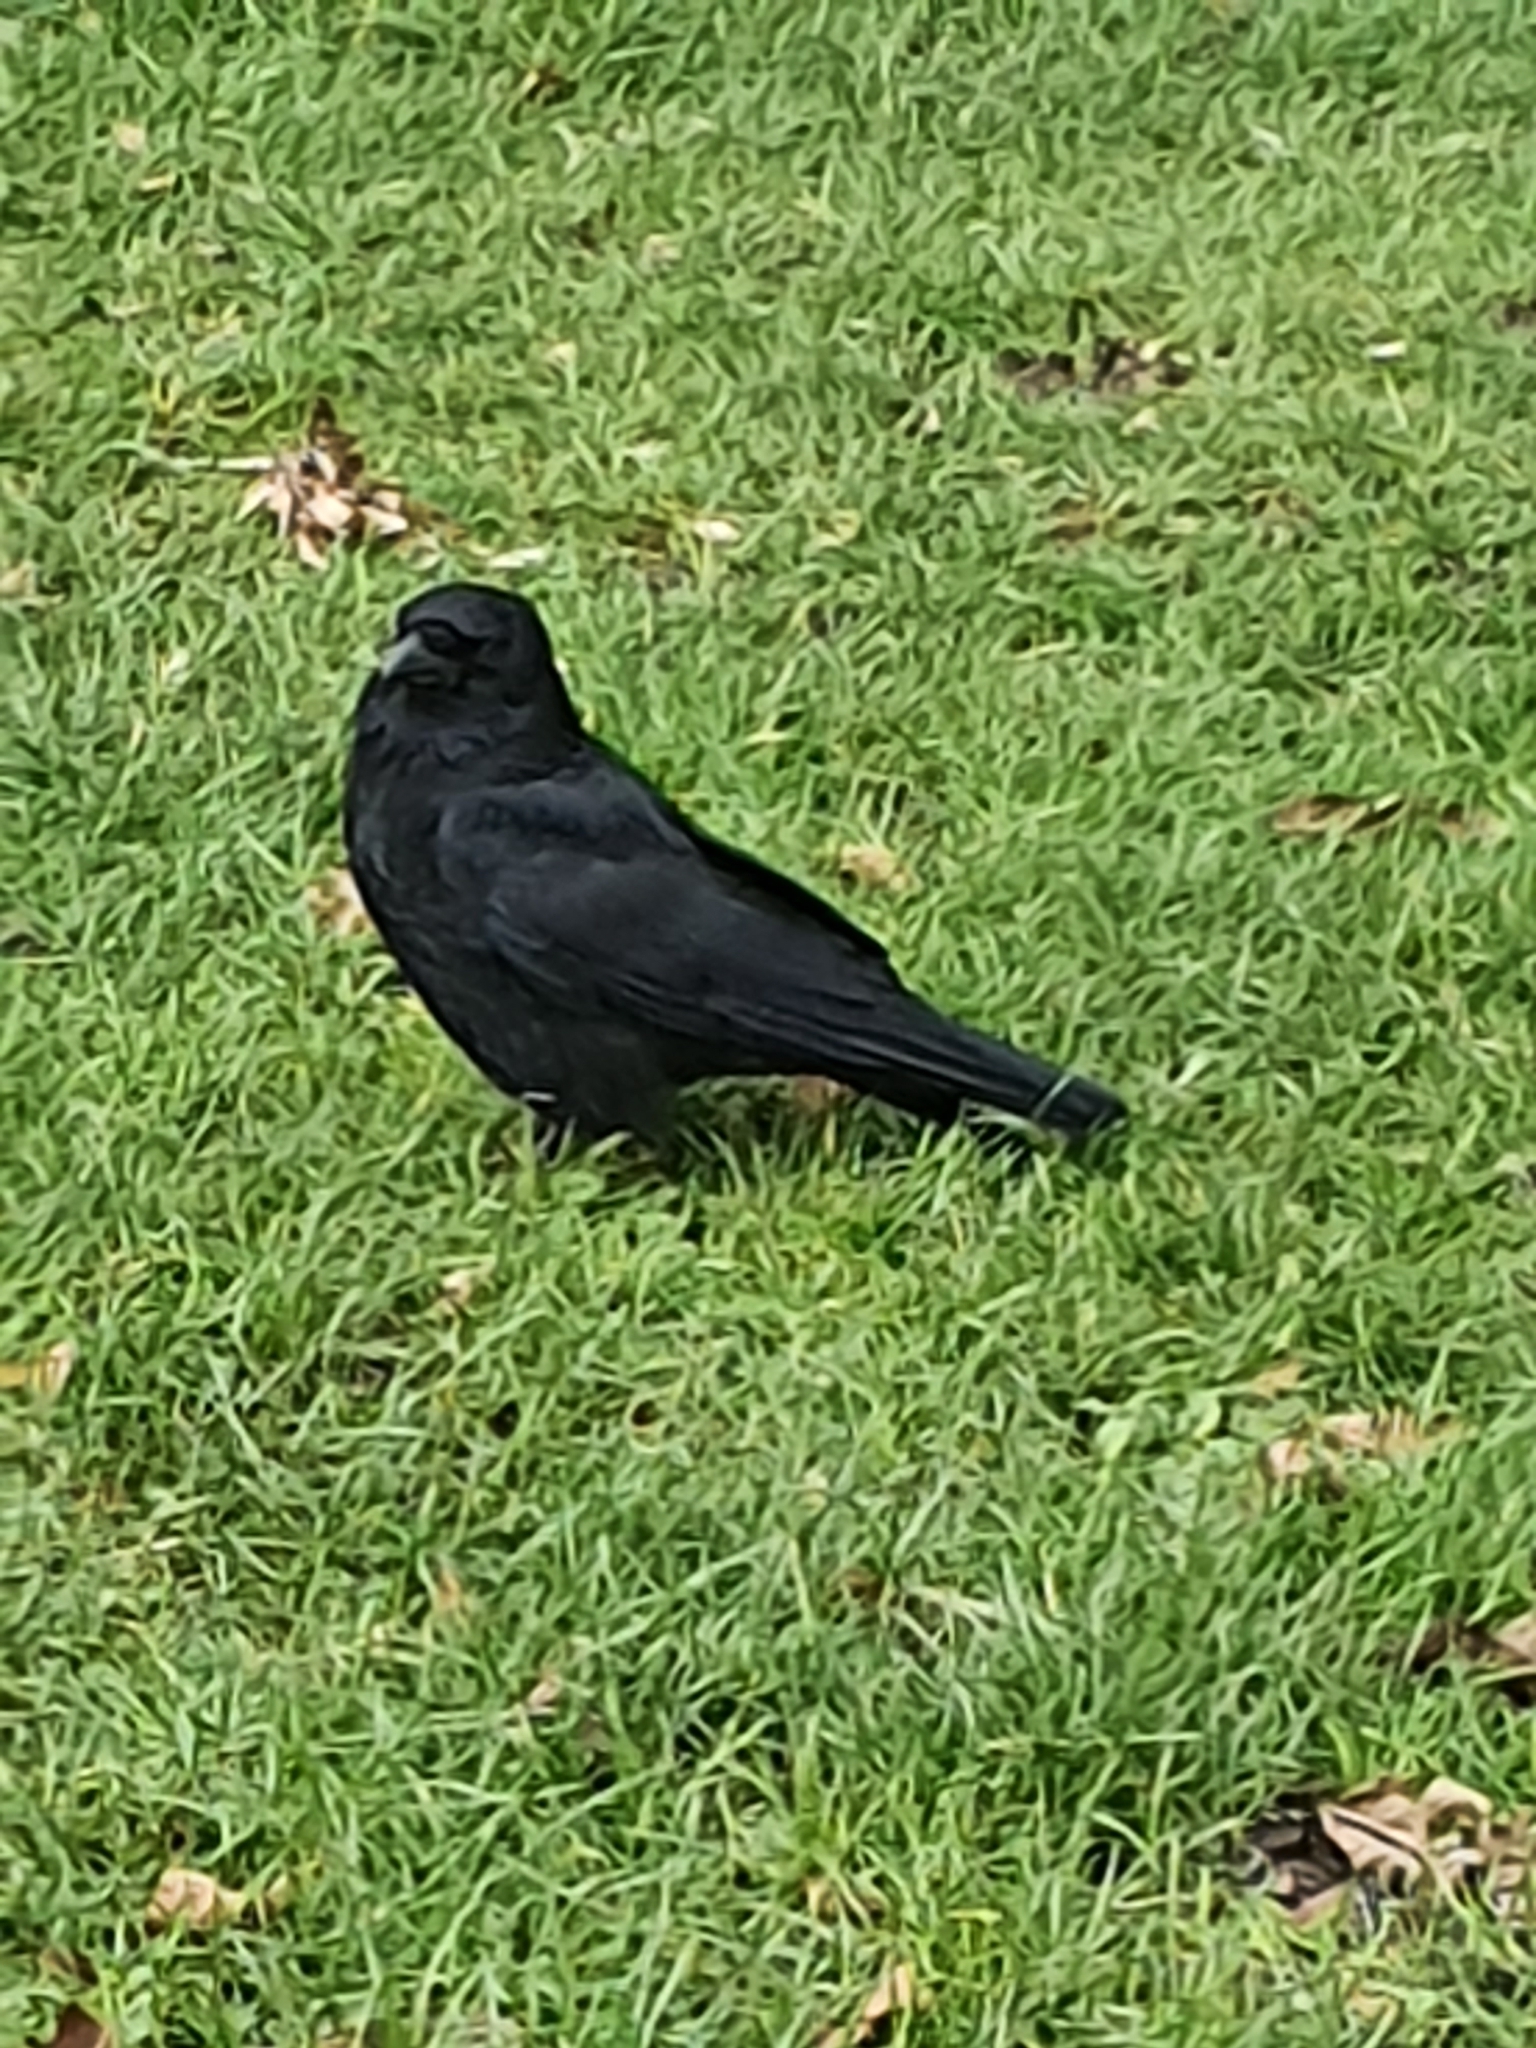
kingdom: Animalia
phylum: Chordata
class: Aves
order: Passeriformes
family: Corvidae
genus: Corvus
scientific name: Corvus corone
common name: Carrion crow
